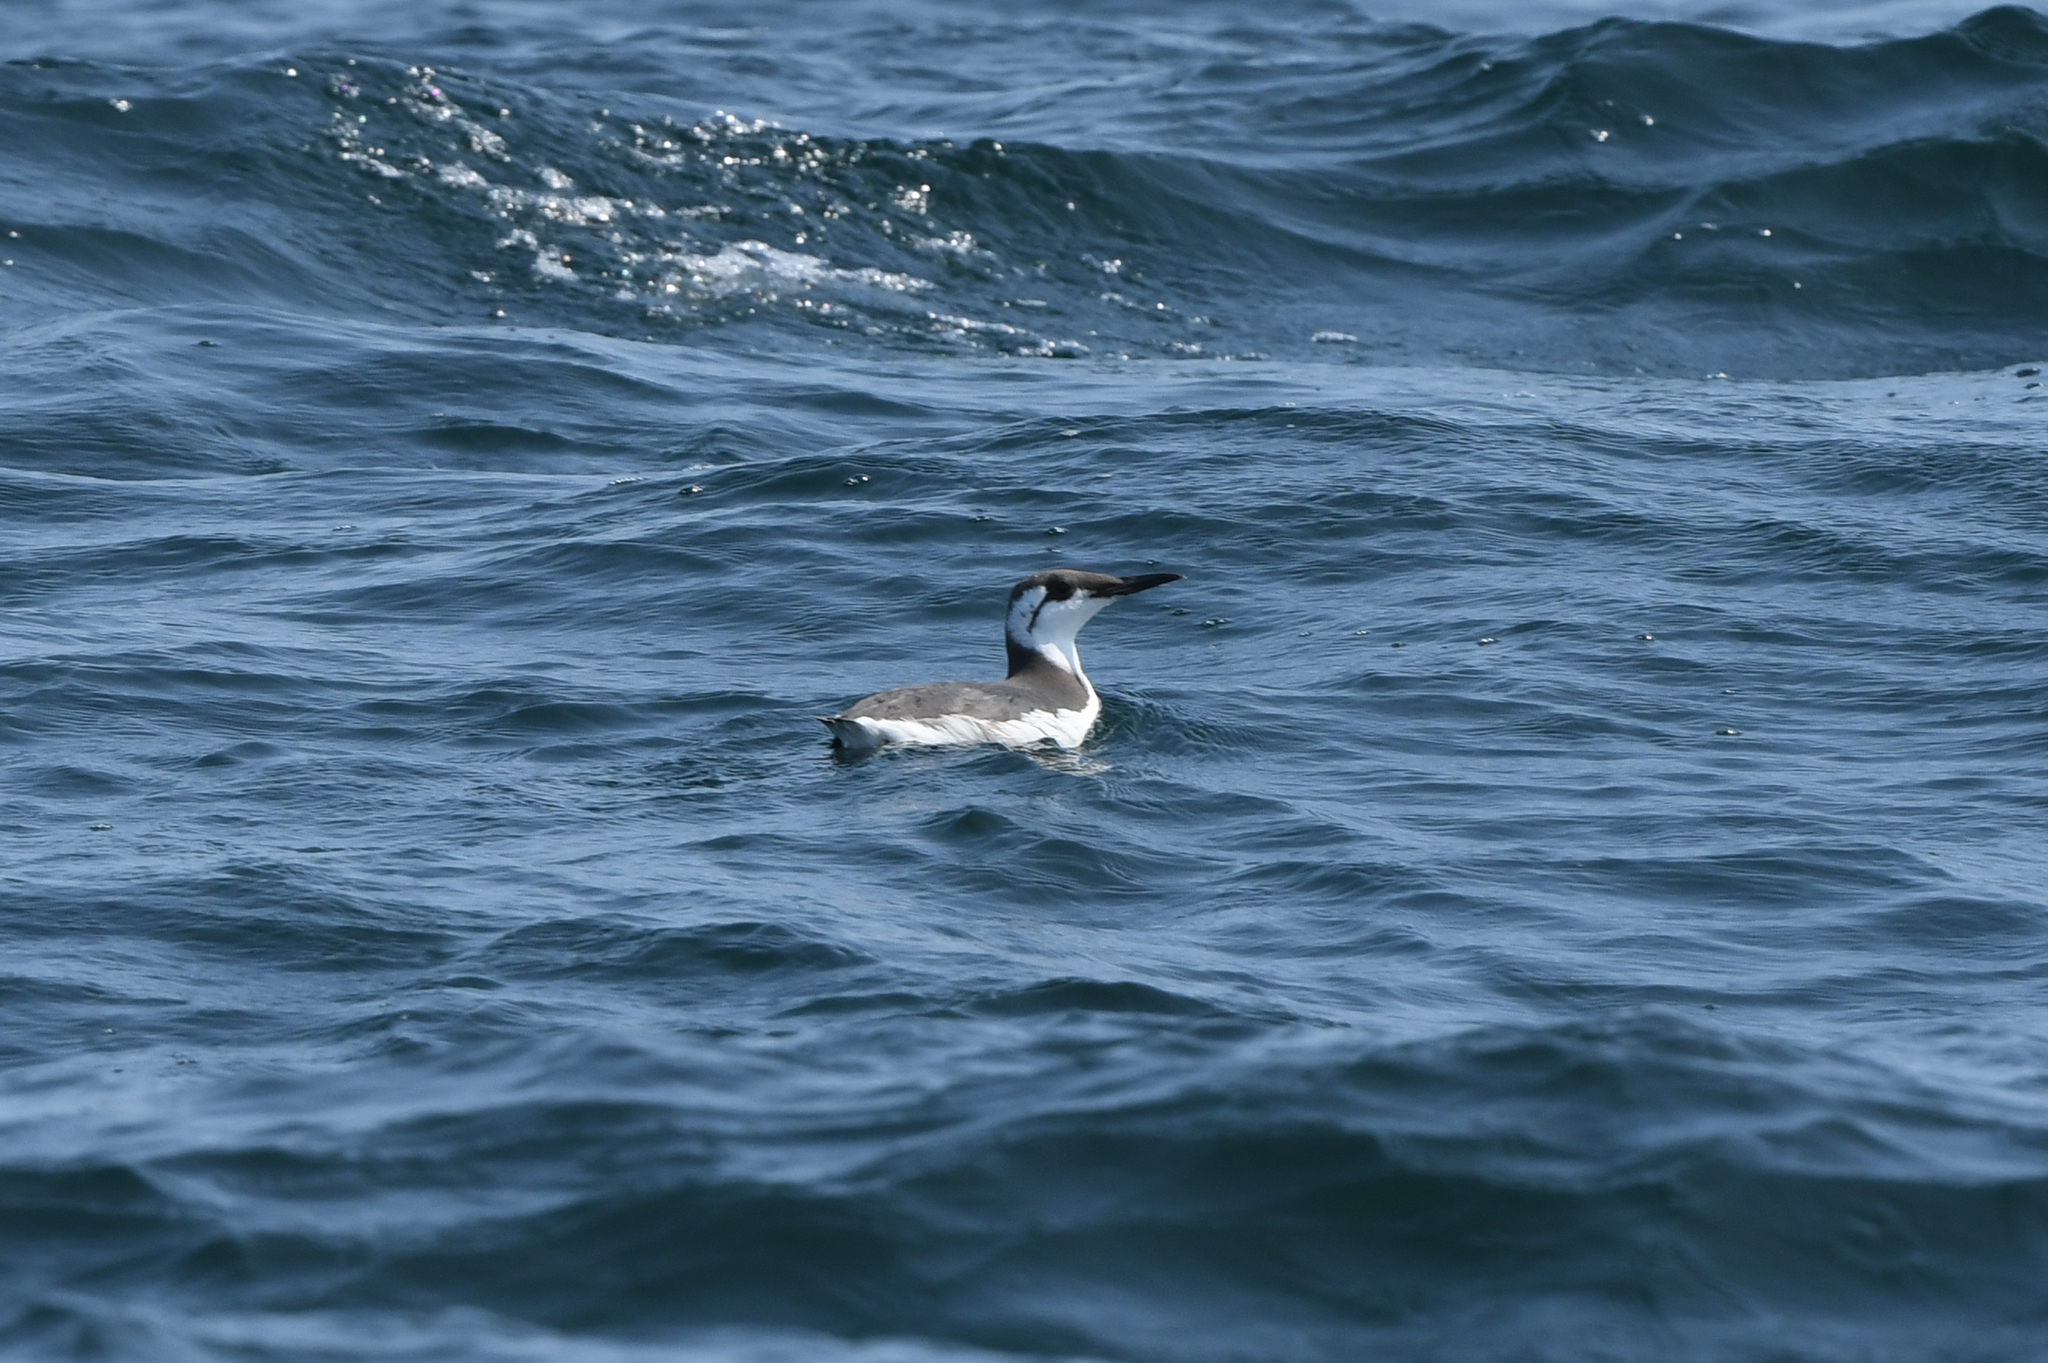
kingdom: Animalia
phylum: Chordata
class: Aves
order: Charadriiformes
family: Alcidae
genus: Uria
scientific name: Uria aalge
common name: Common murre
